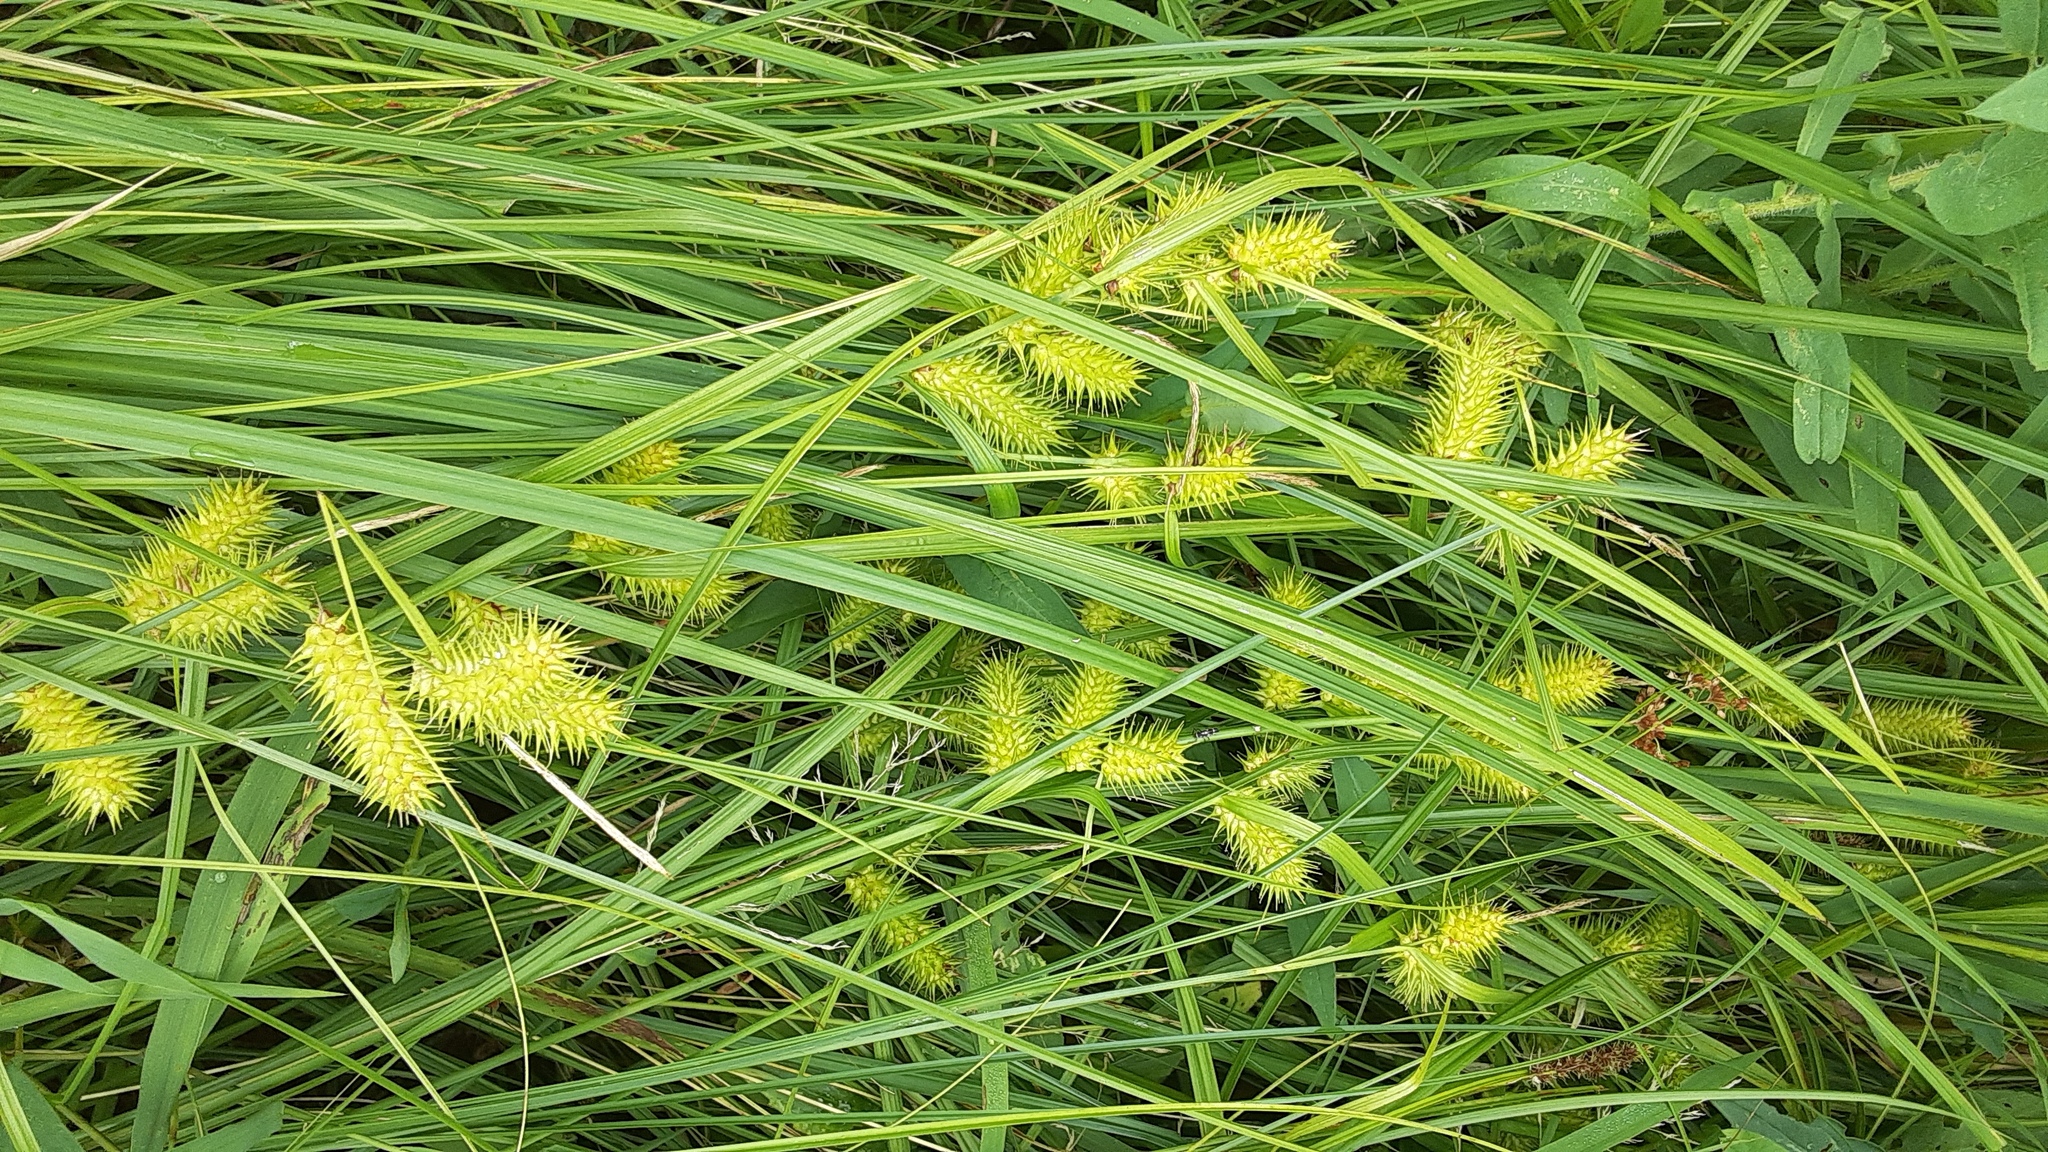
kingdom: Plantae
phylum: Tracheophyta
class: Liliopsida
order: Poales
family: Cyperaceae
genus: Carex
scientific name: Carex lurida
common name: Sallow sedge
